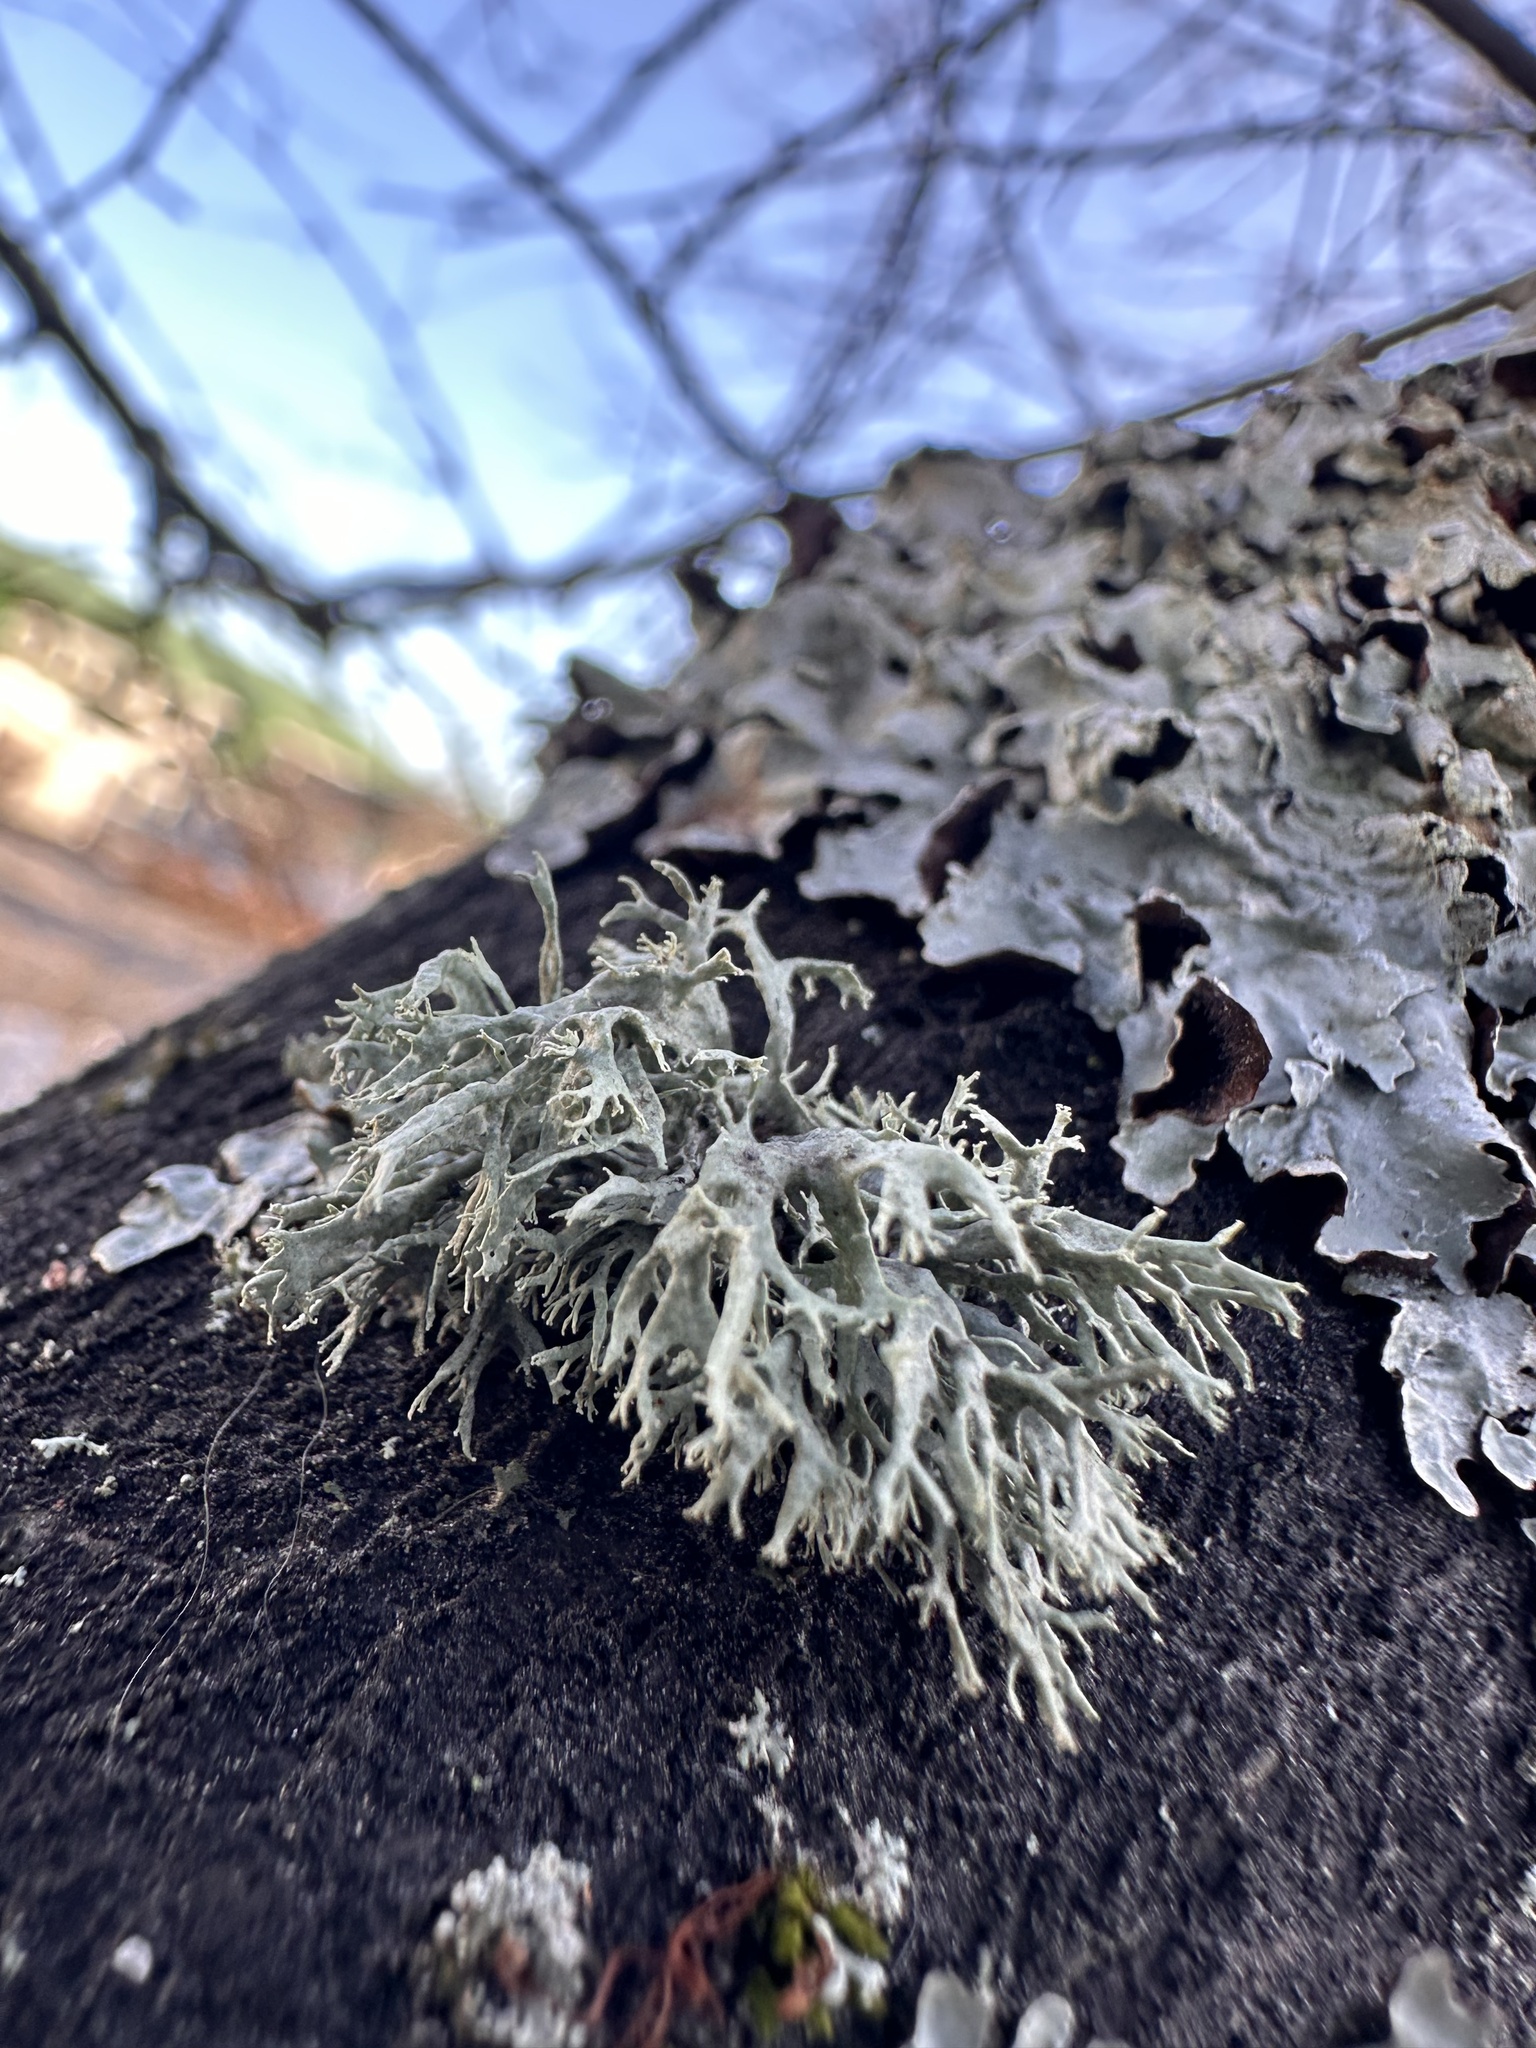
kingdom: Fungi
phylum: Ascomycota
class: Lecanoromycetes
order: Lecanorales
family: Parmeliaceae
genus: Evernia
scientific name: Evernia prunastri
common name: Oak moss
